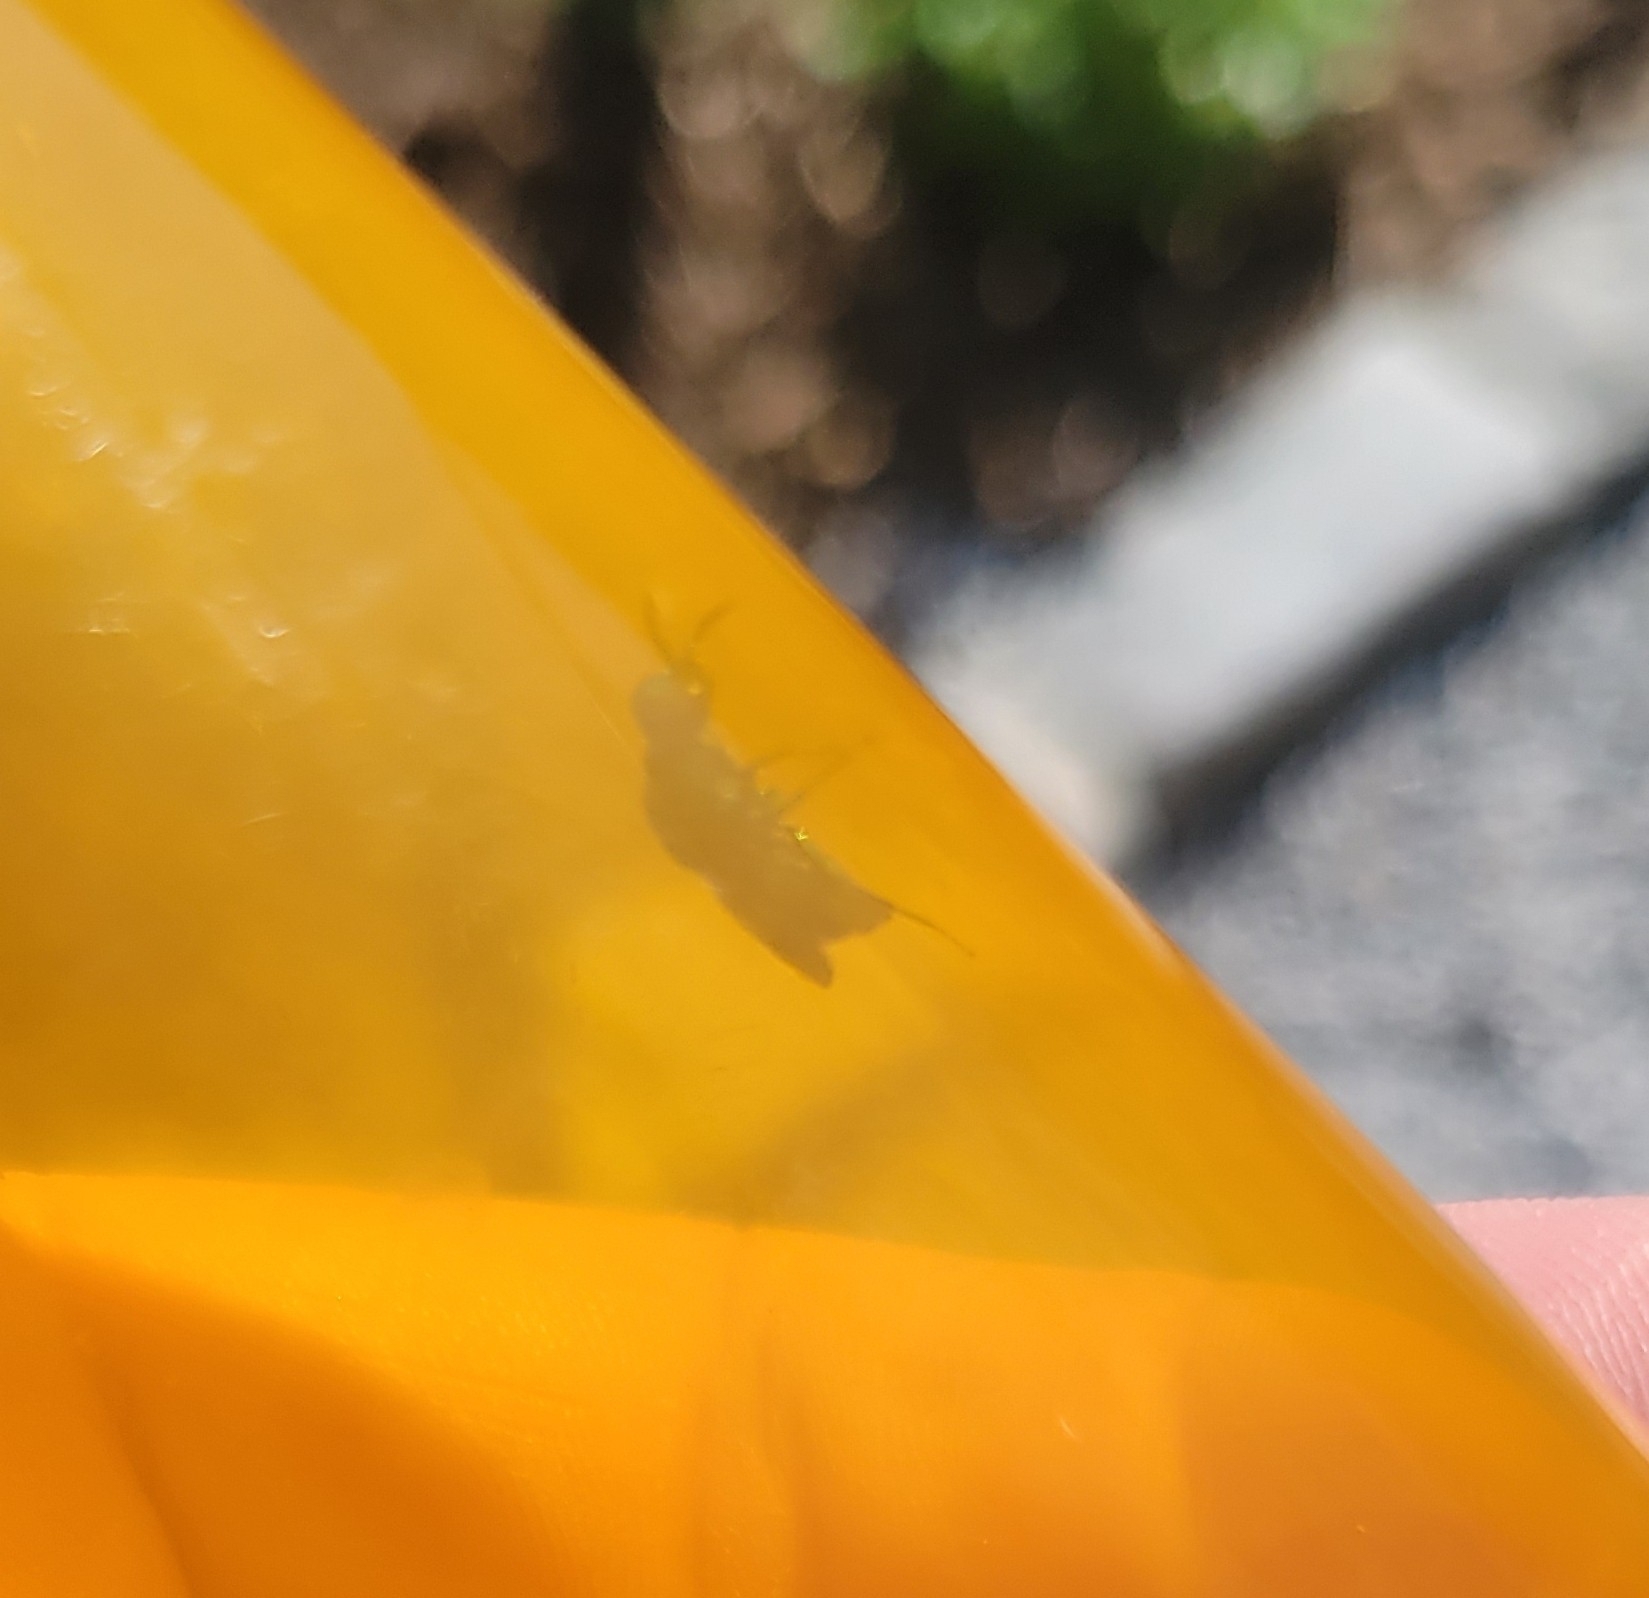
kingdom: Animalia
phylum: Arthropoda
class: Insecta
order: Hymenoptera
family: Chrysididae
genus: Chrysis
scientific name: Chrysis angolensis
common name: Cuckoo wasp
